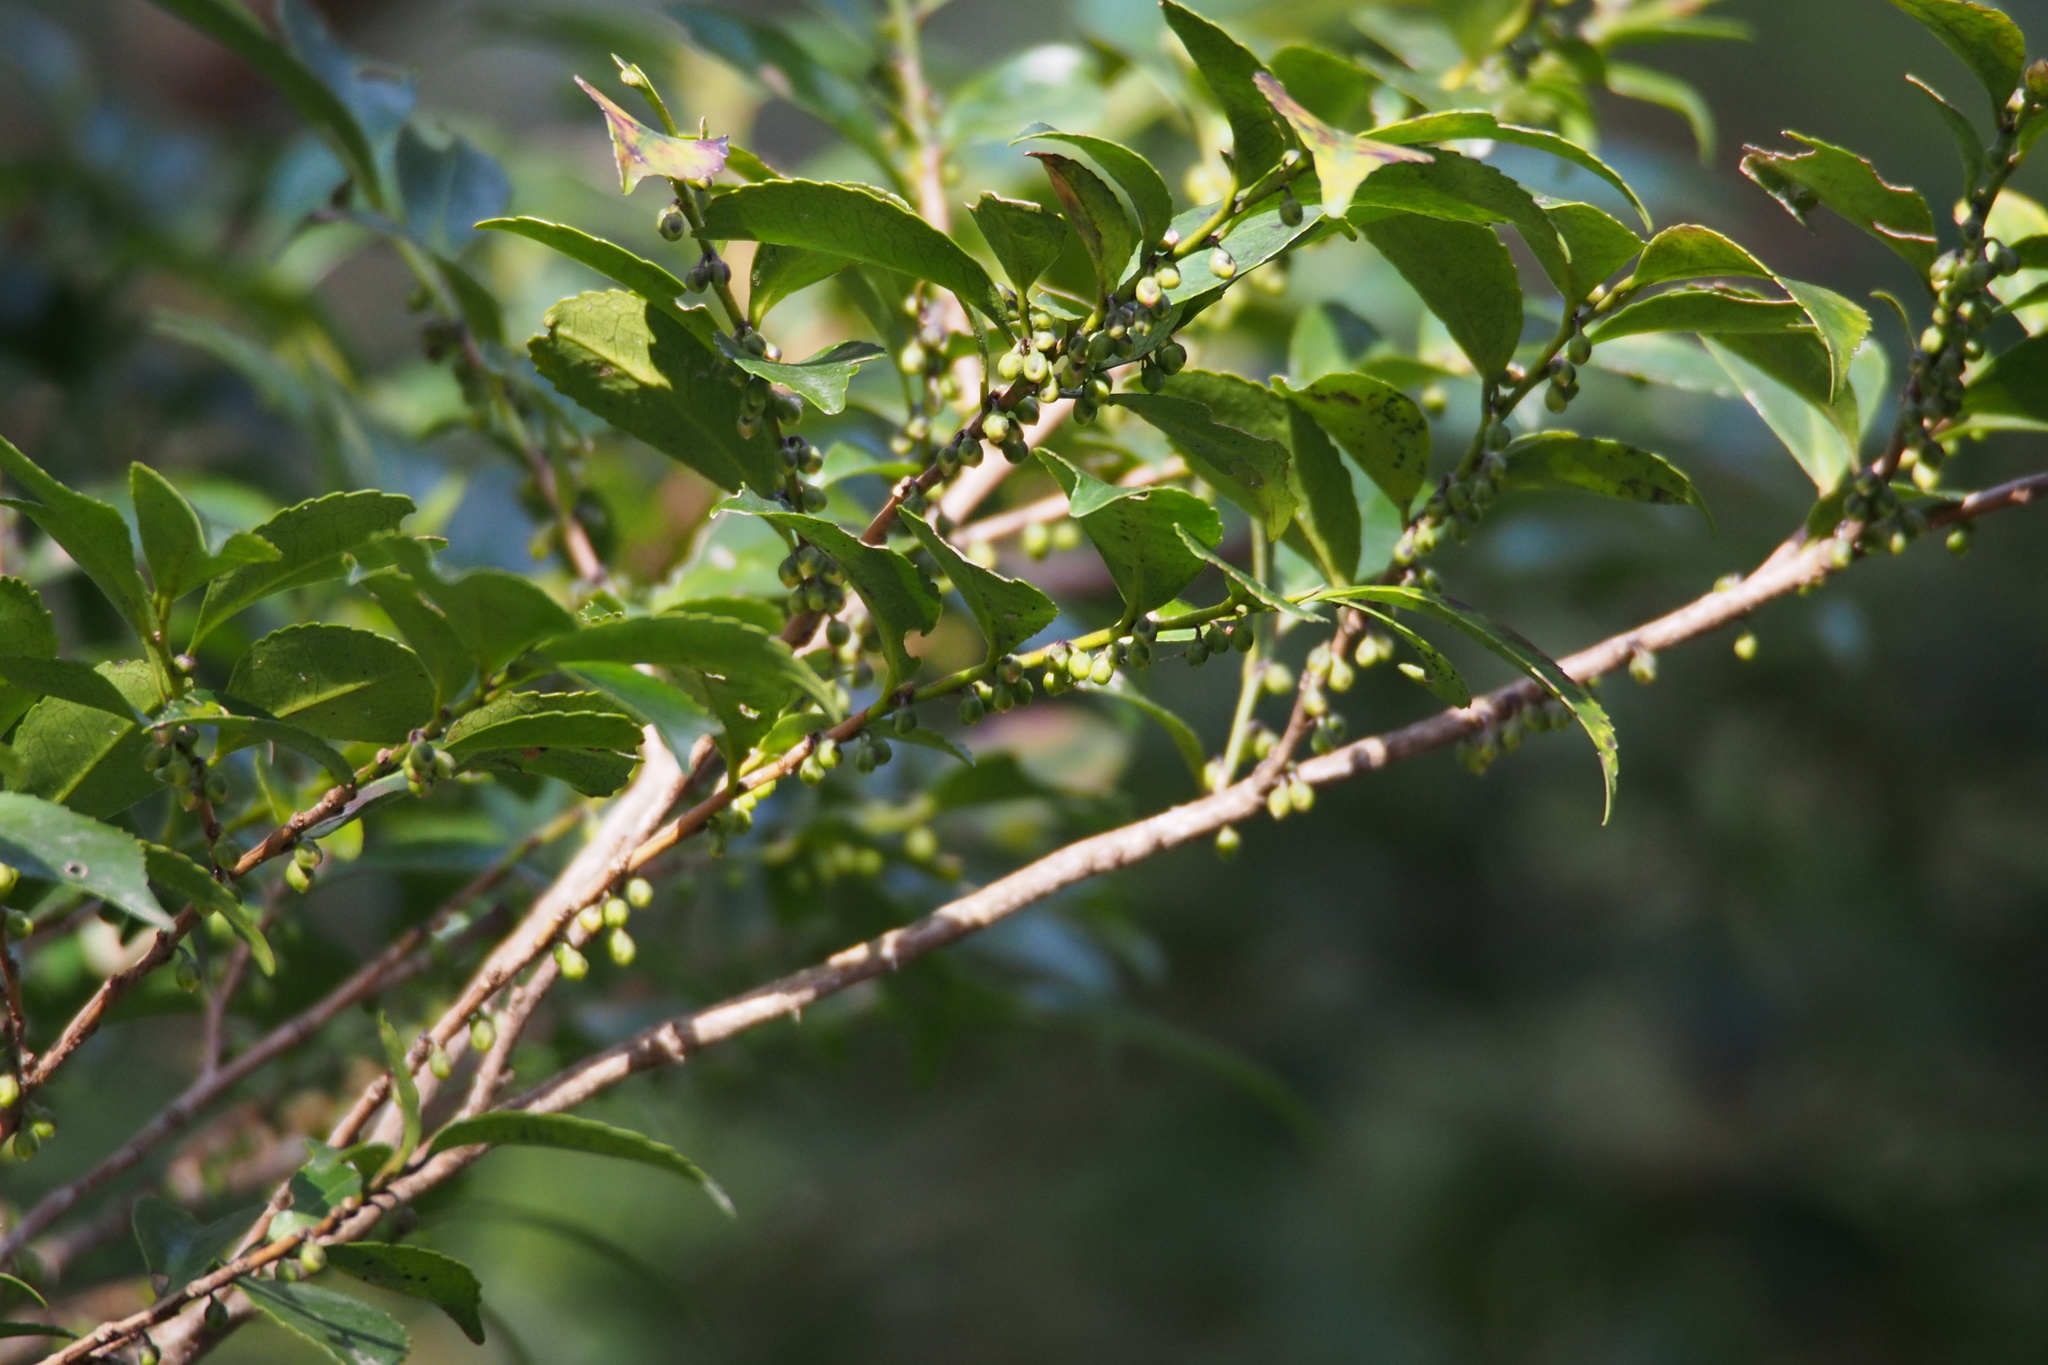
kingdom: Plantae
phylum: Tracheophyta
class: Magnoliopsida
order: Ericales
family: Pentaphylacaceae
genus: Eurya
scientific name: Eurya japonica
